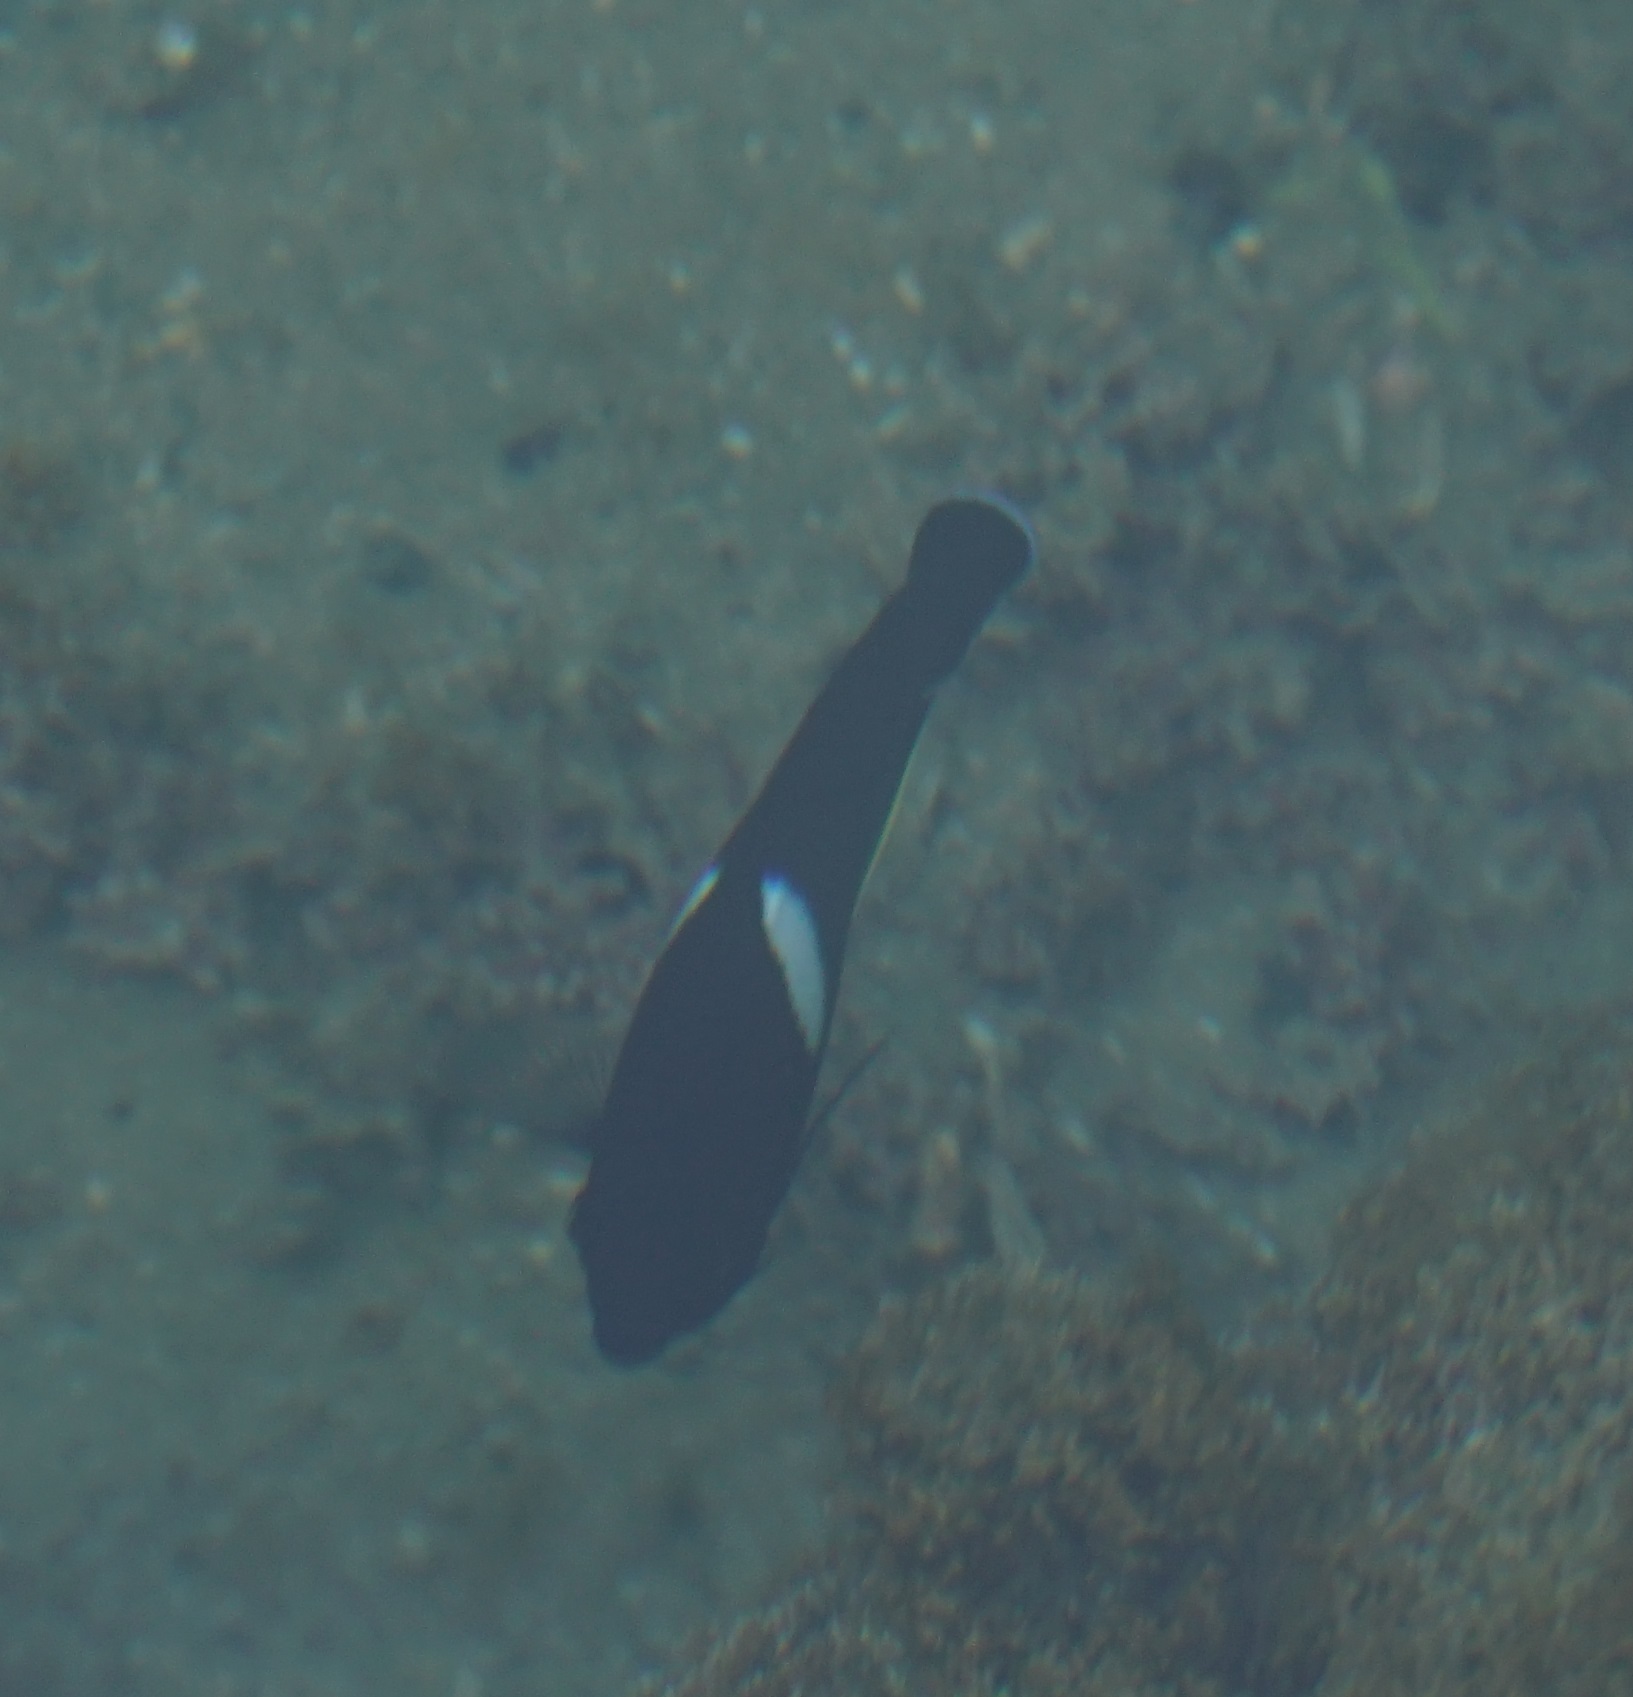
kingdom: Animalia
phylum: Chordata
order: Perciformes
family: Pomacanthidae
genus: Centropyge
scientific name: Centropyge tibicen
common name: Keyhole angelfish
